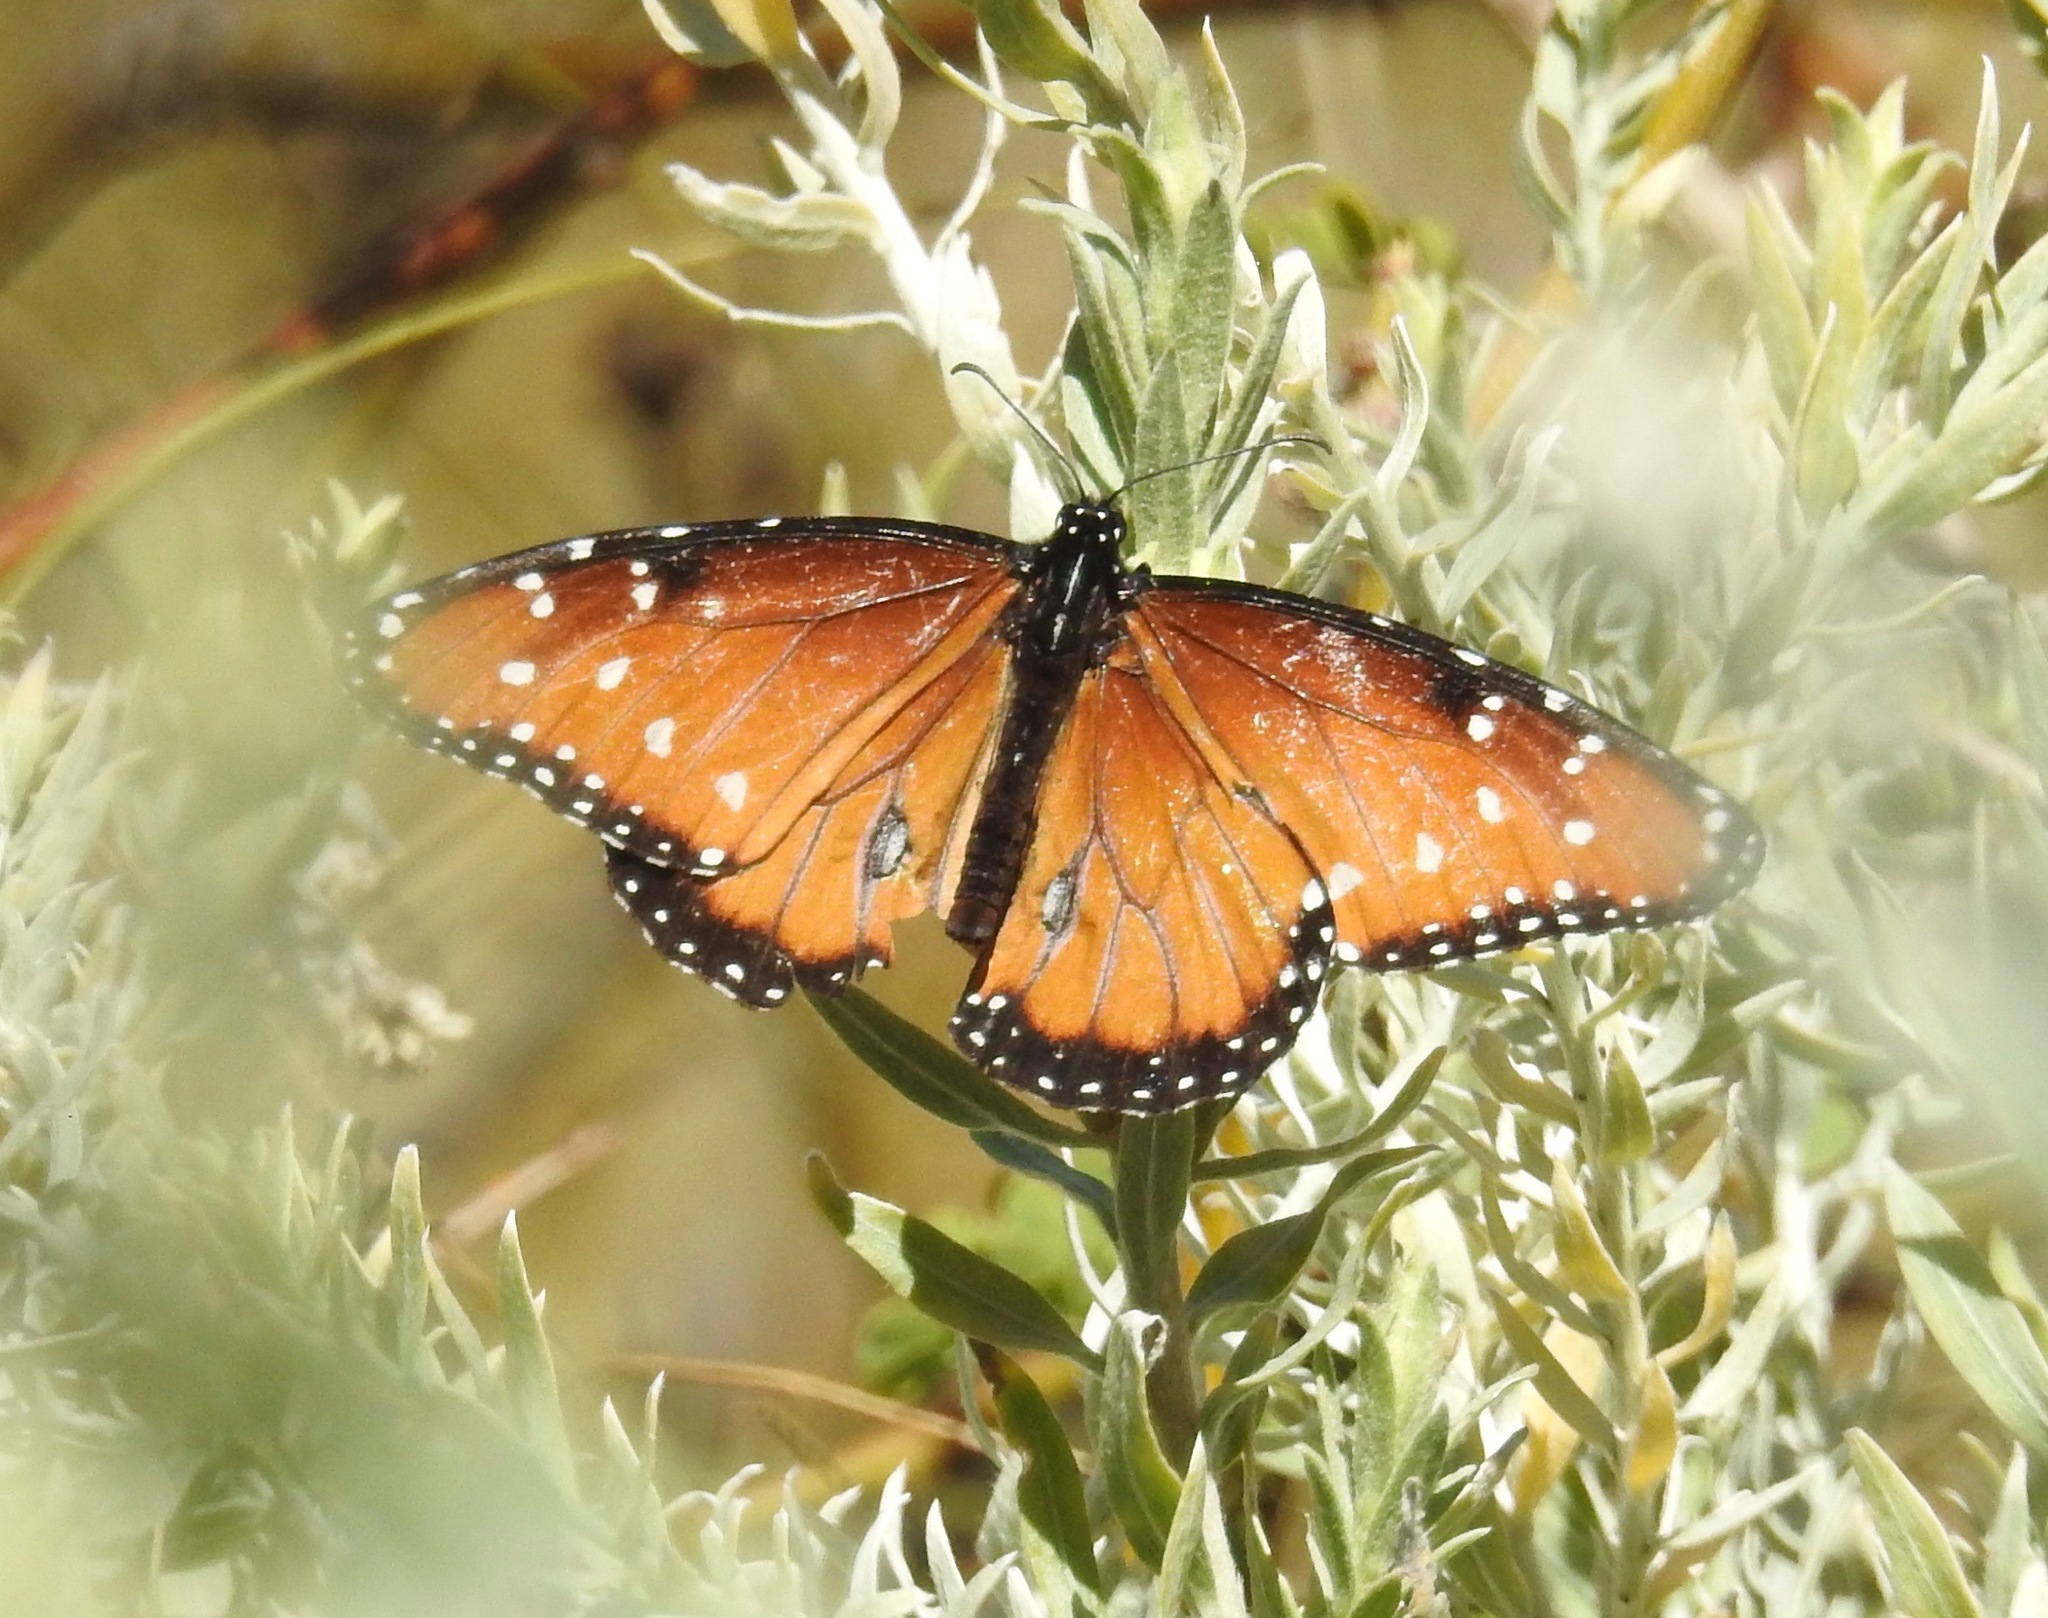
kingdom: Animalia
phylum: Arthropoda
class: Insecta
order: Lepidoptera
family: Nymphalidae
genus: Danaus
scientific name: Danaus gilippus
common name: Queen
